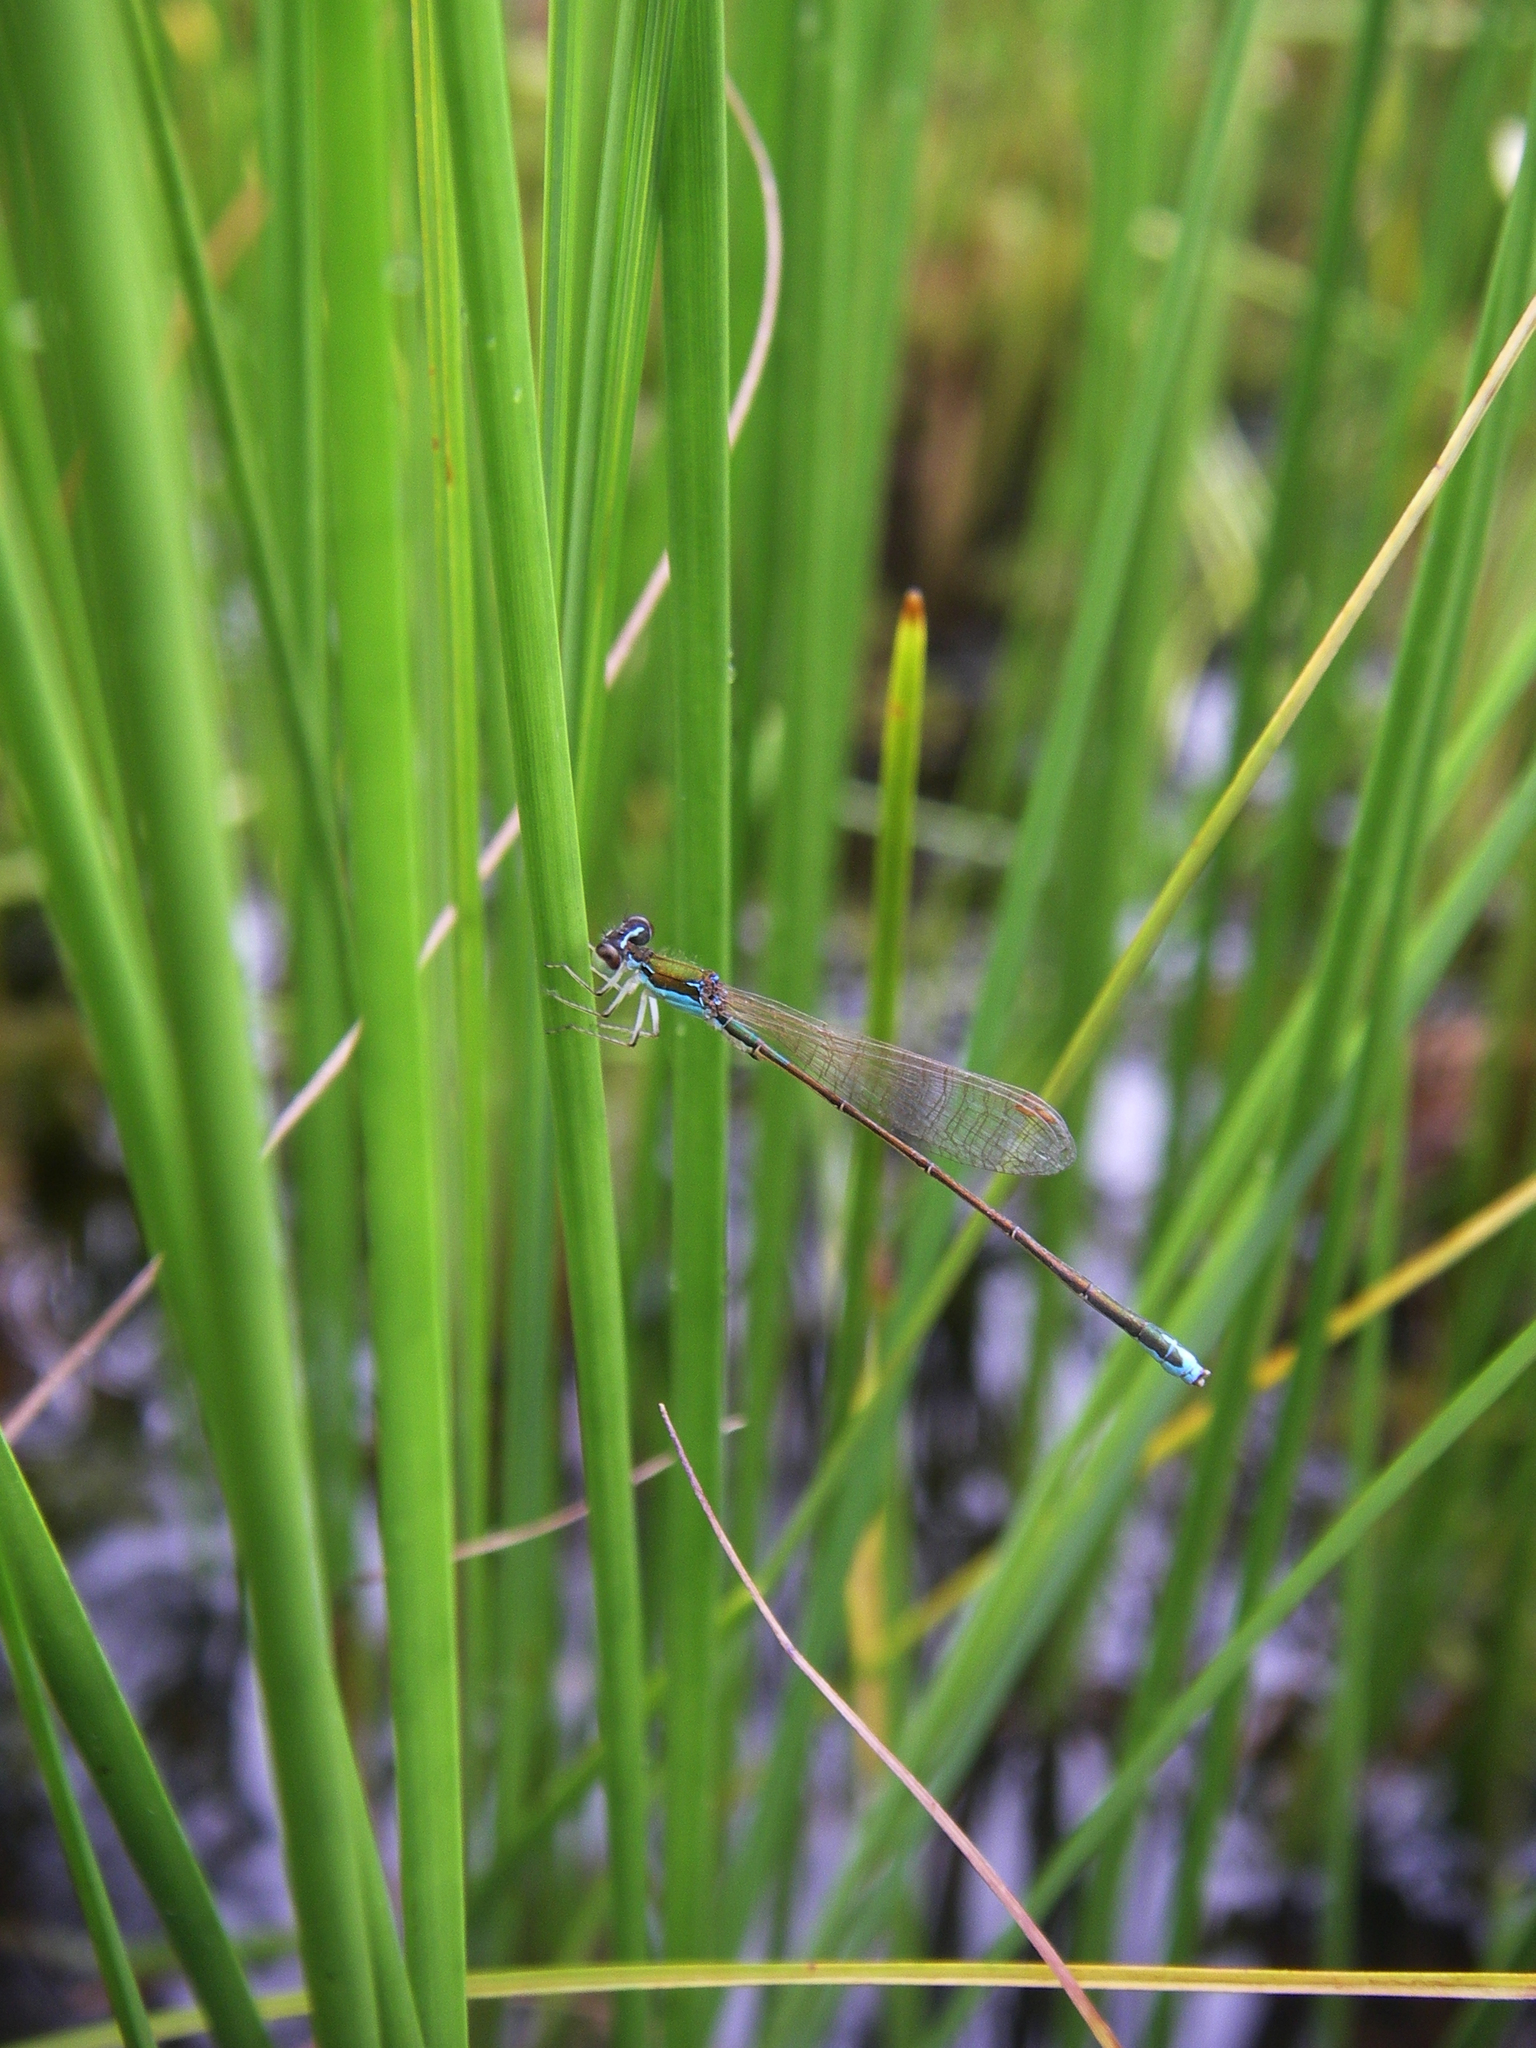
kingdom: Animalia
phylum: Arthropoda
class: Insecta
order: Odonata
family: Coenagrionidae
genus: Nehalennia
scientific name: Nehalennia speciosa
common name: Sedgling
